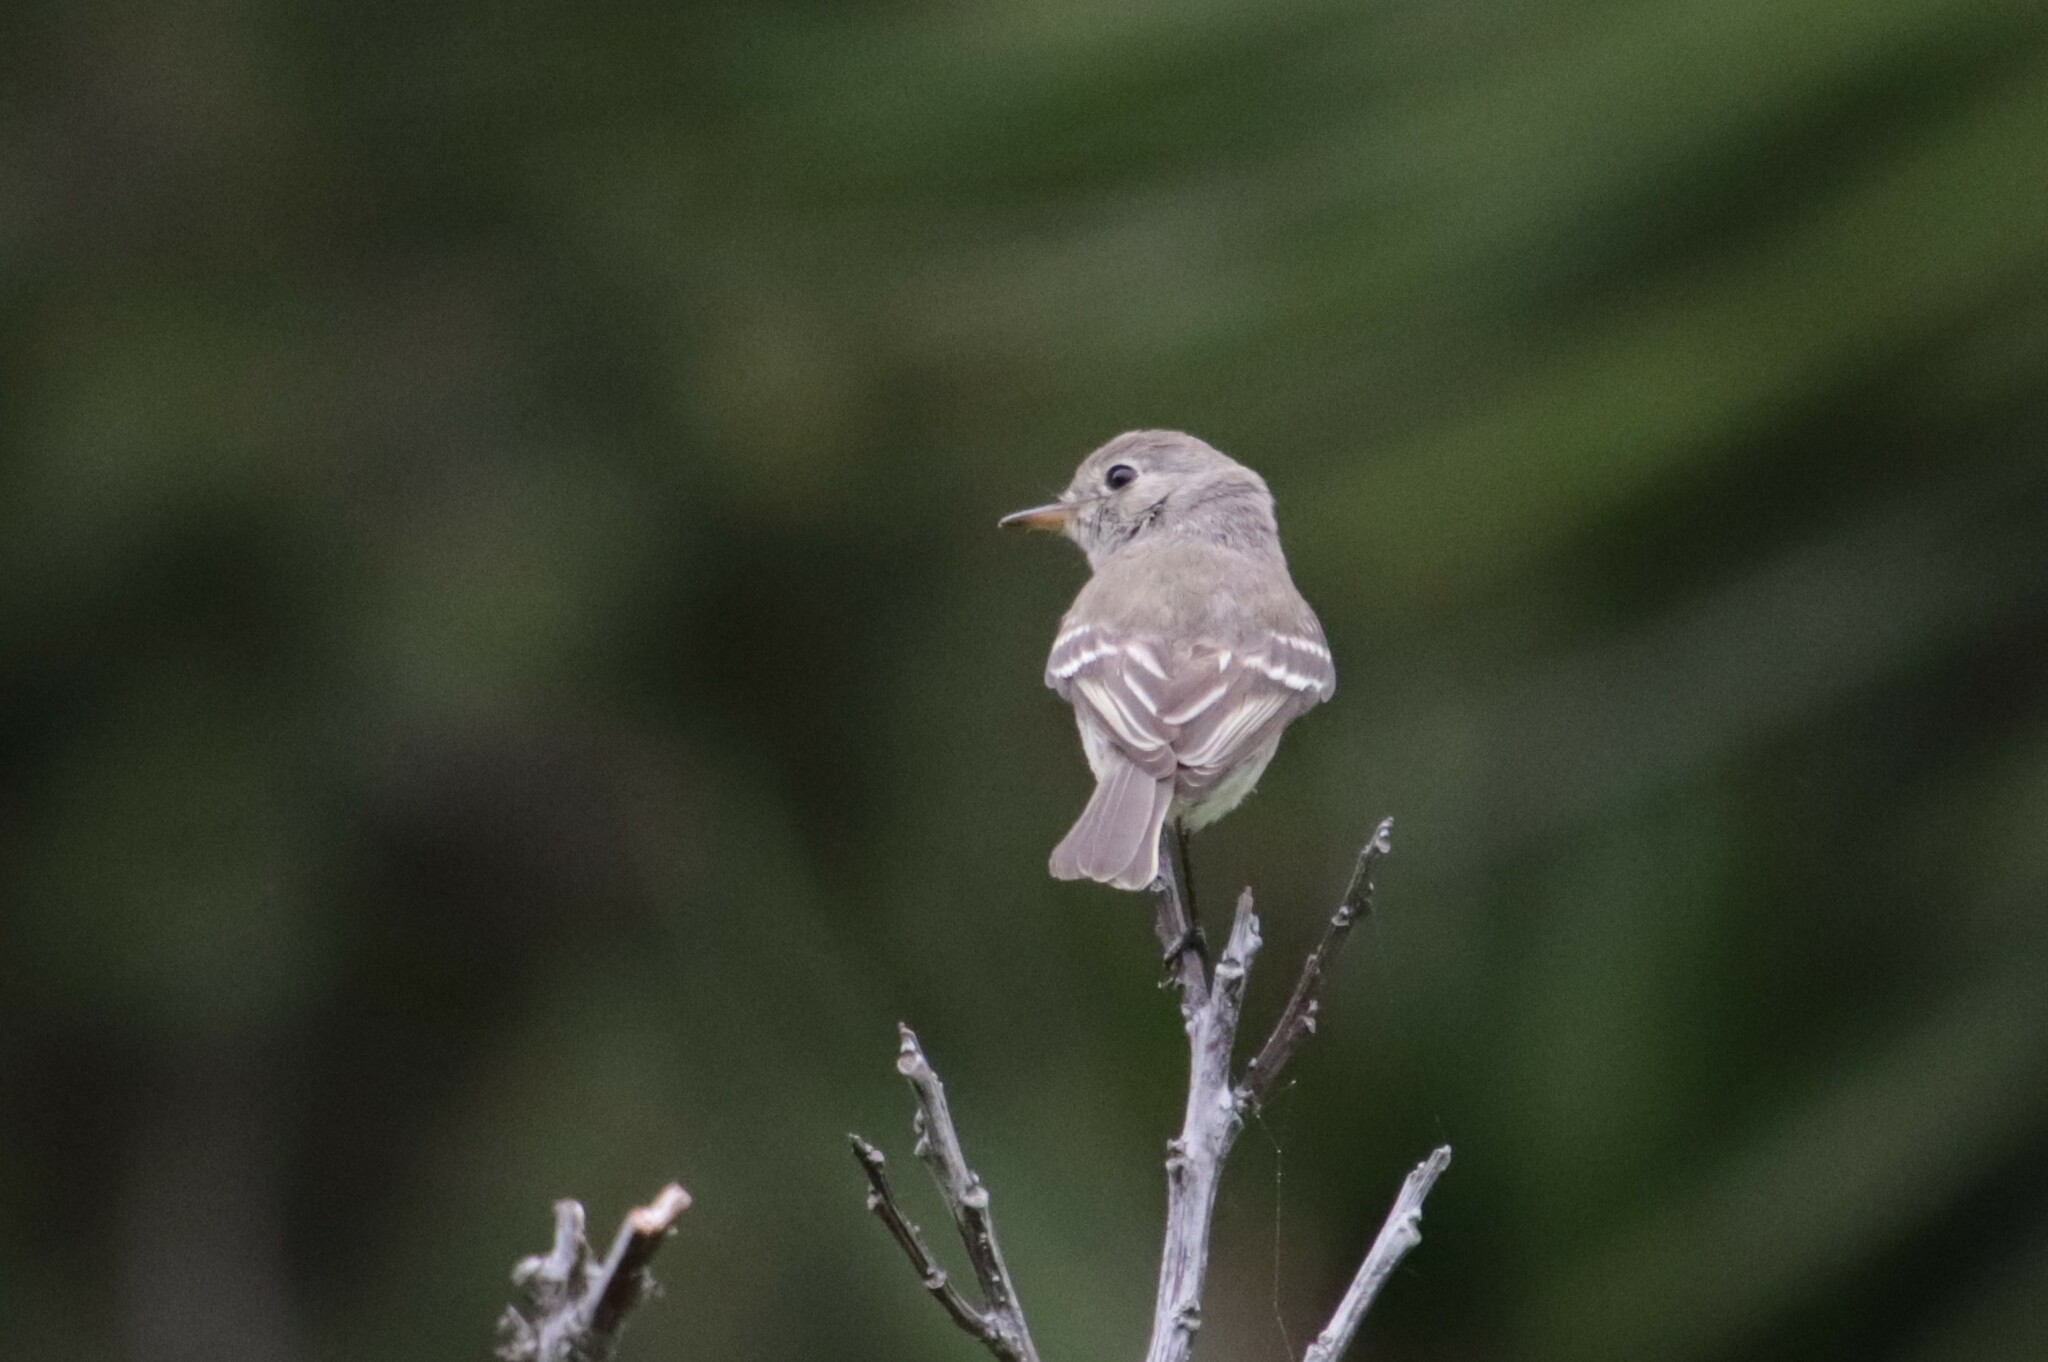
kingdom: Animalia
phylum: Chordata
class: Aves
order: Passeriformes
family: Tyrannidae
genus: Empidonax
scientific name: Empidonax wrightii
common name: Gray flycatcher
